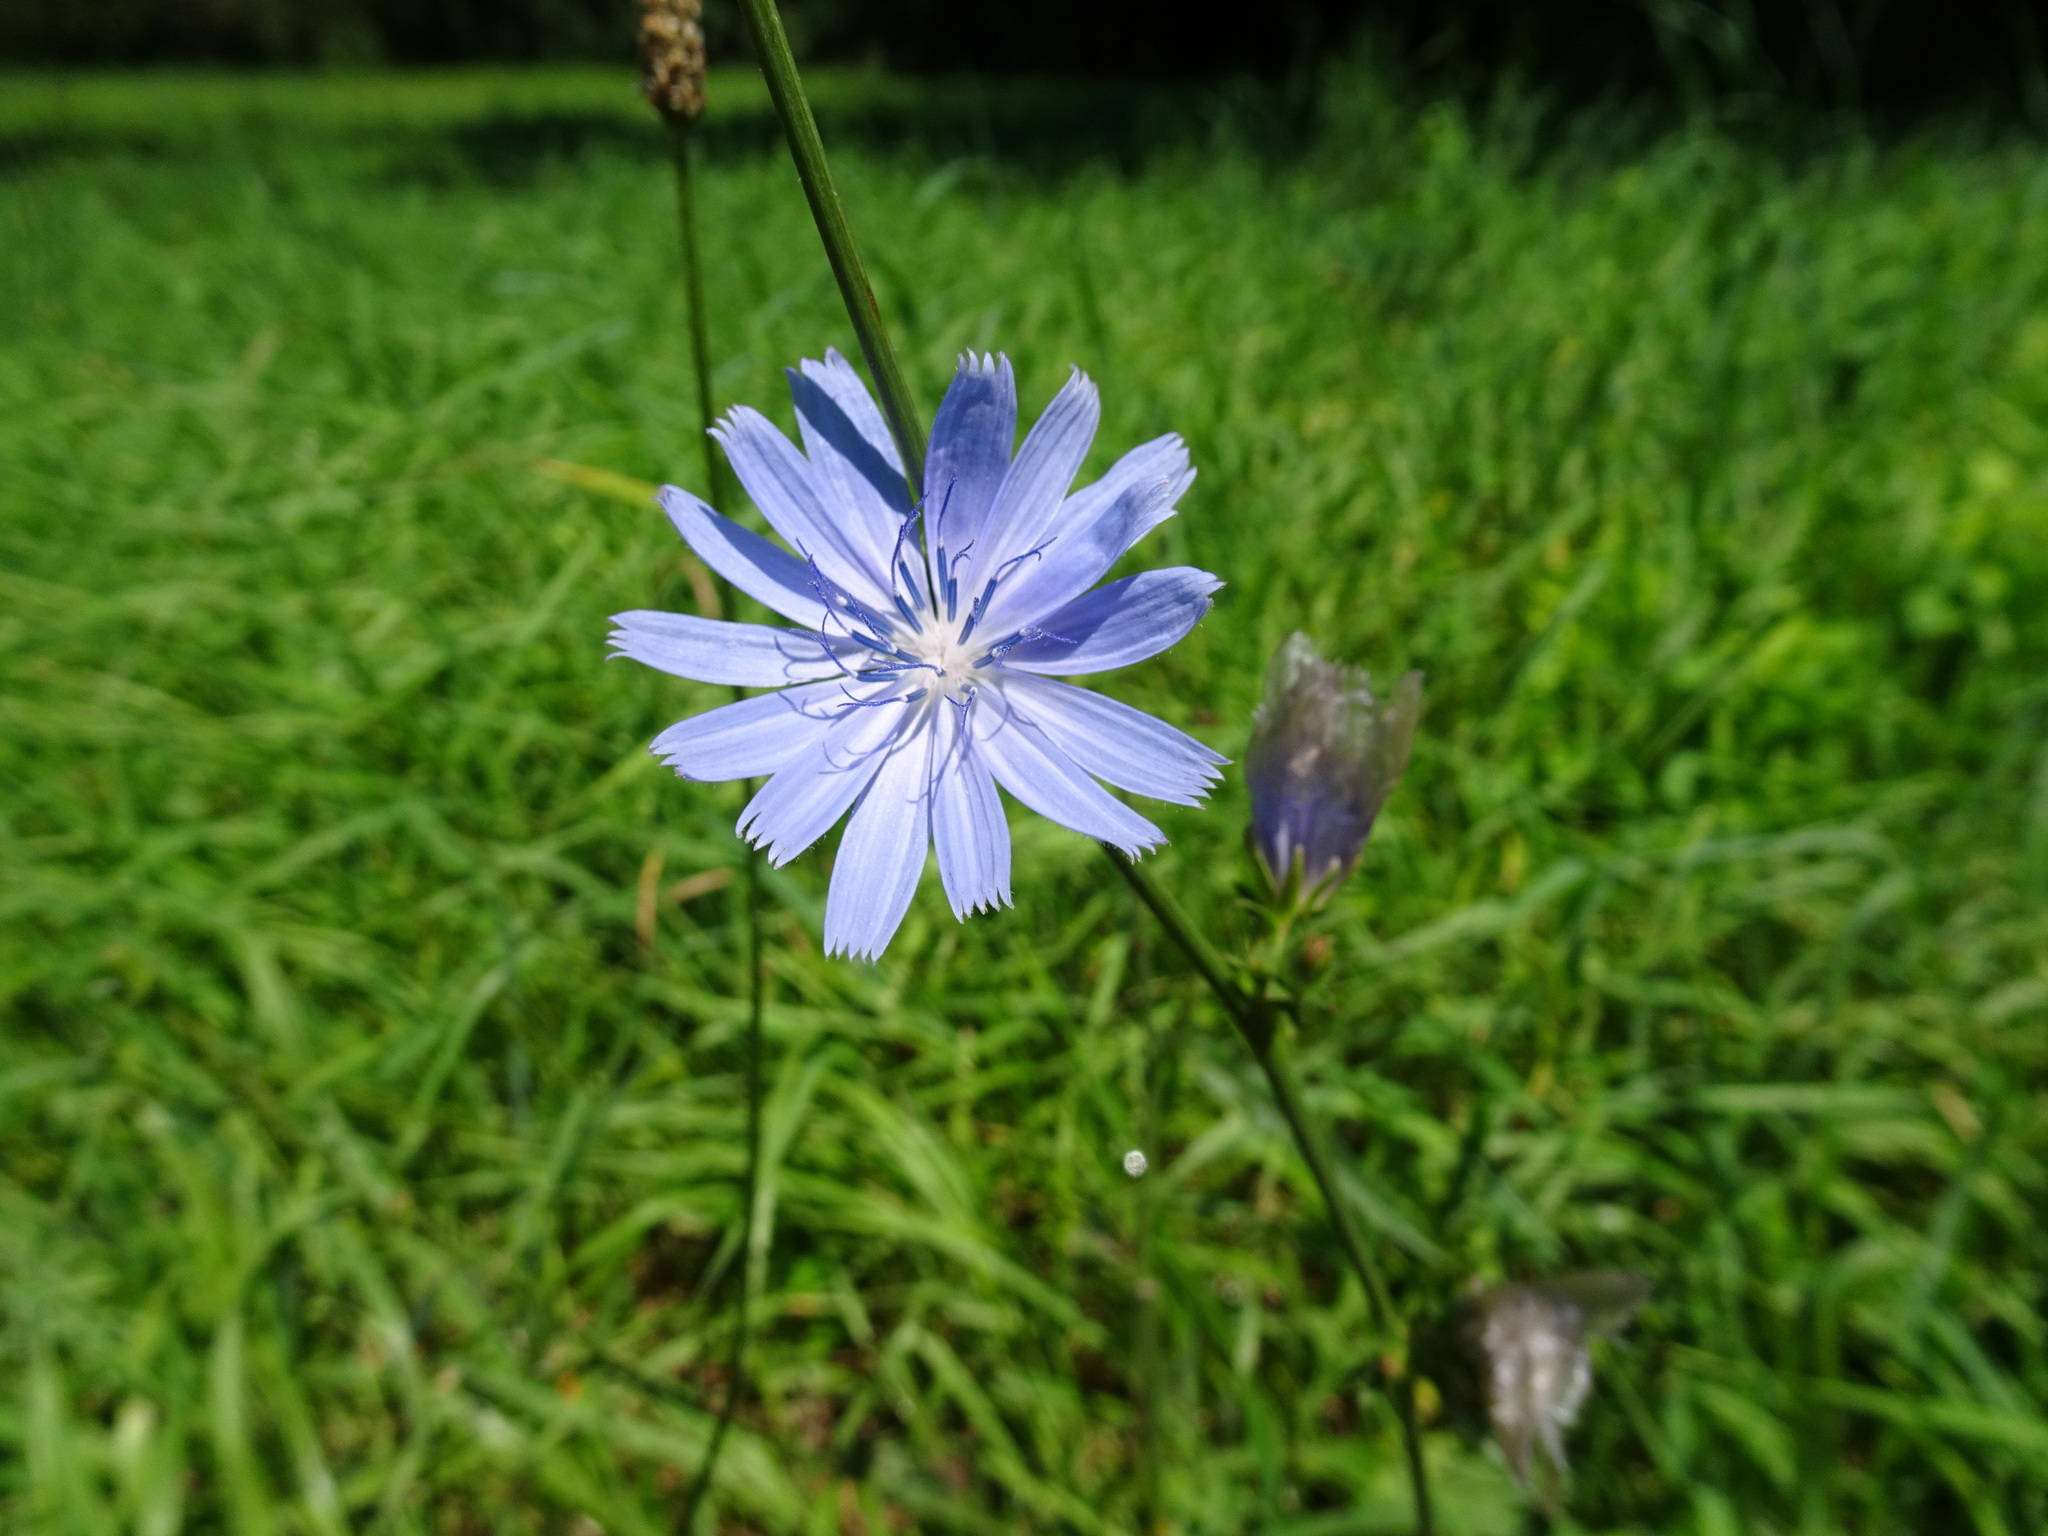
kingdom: Plantae
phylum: Tracheophyta
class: Magnoliopsida
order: Asterales
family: Asteraceae
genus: Cichorium
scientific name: Cichorium intybus
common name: Chicory
